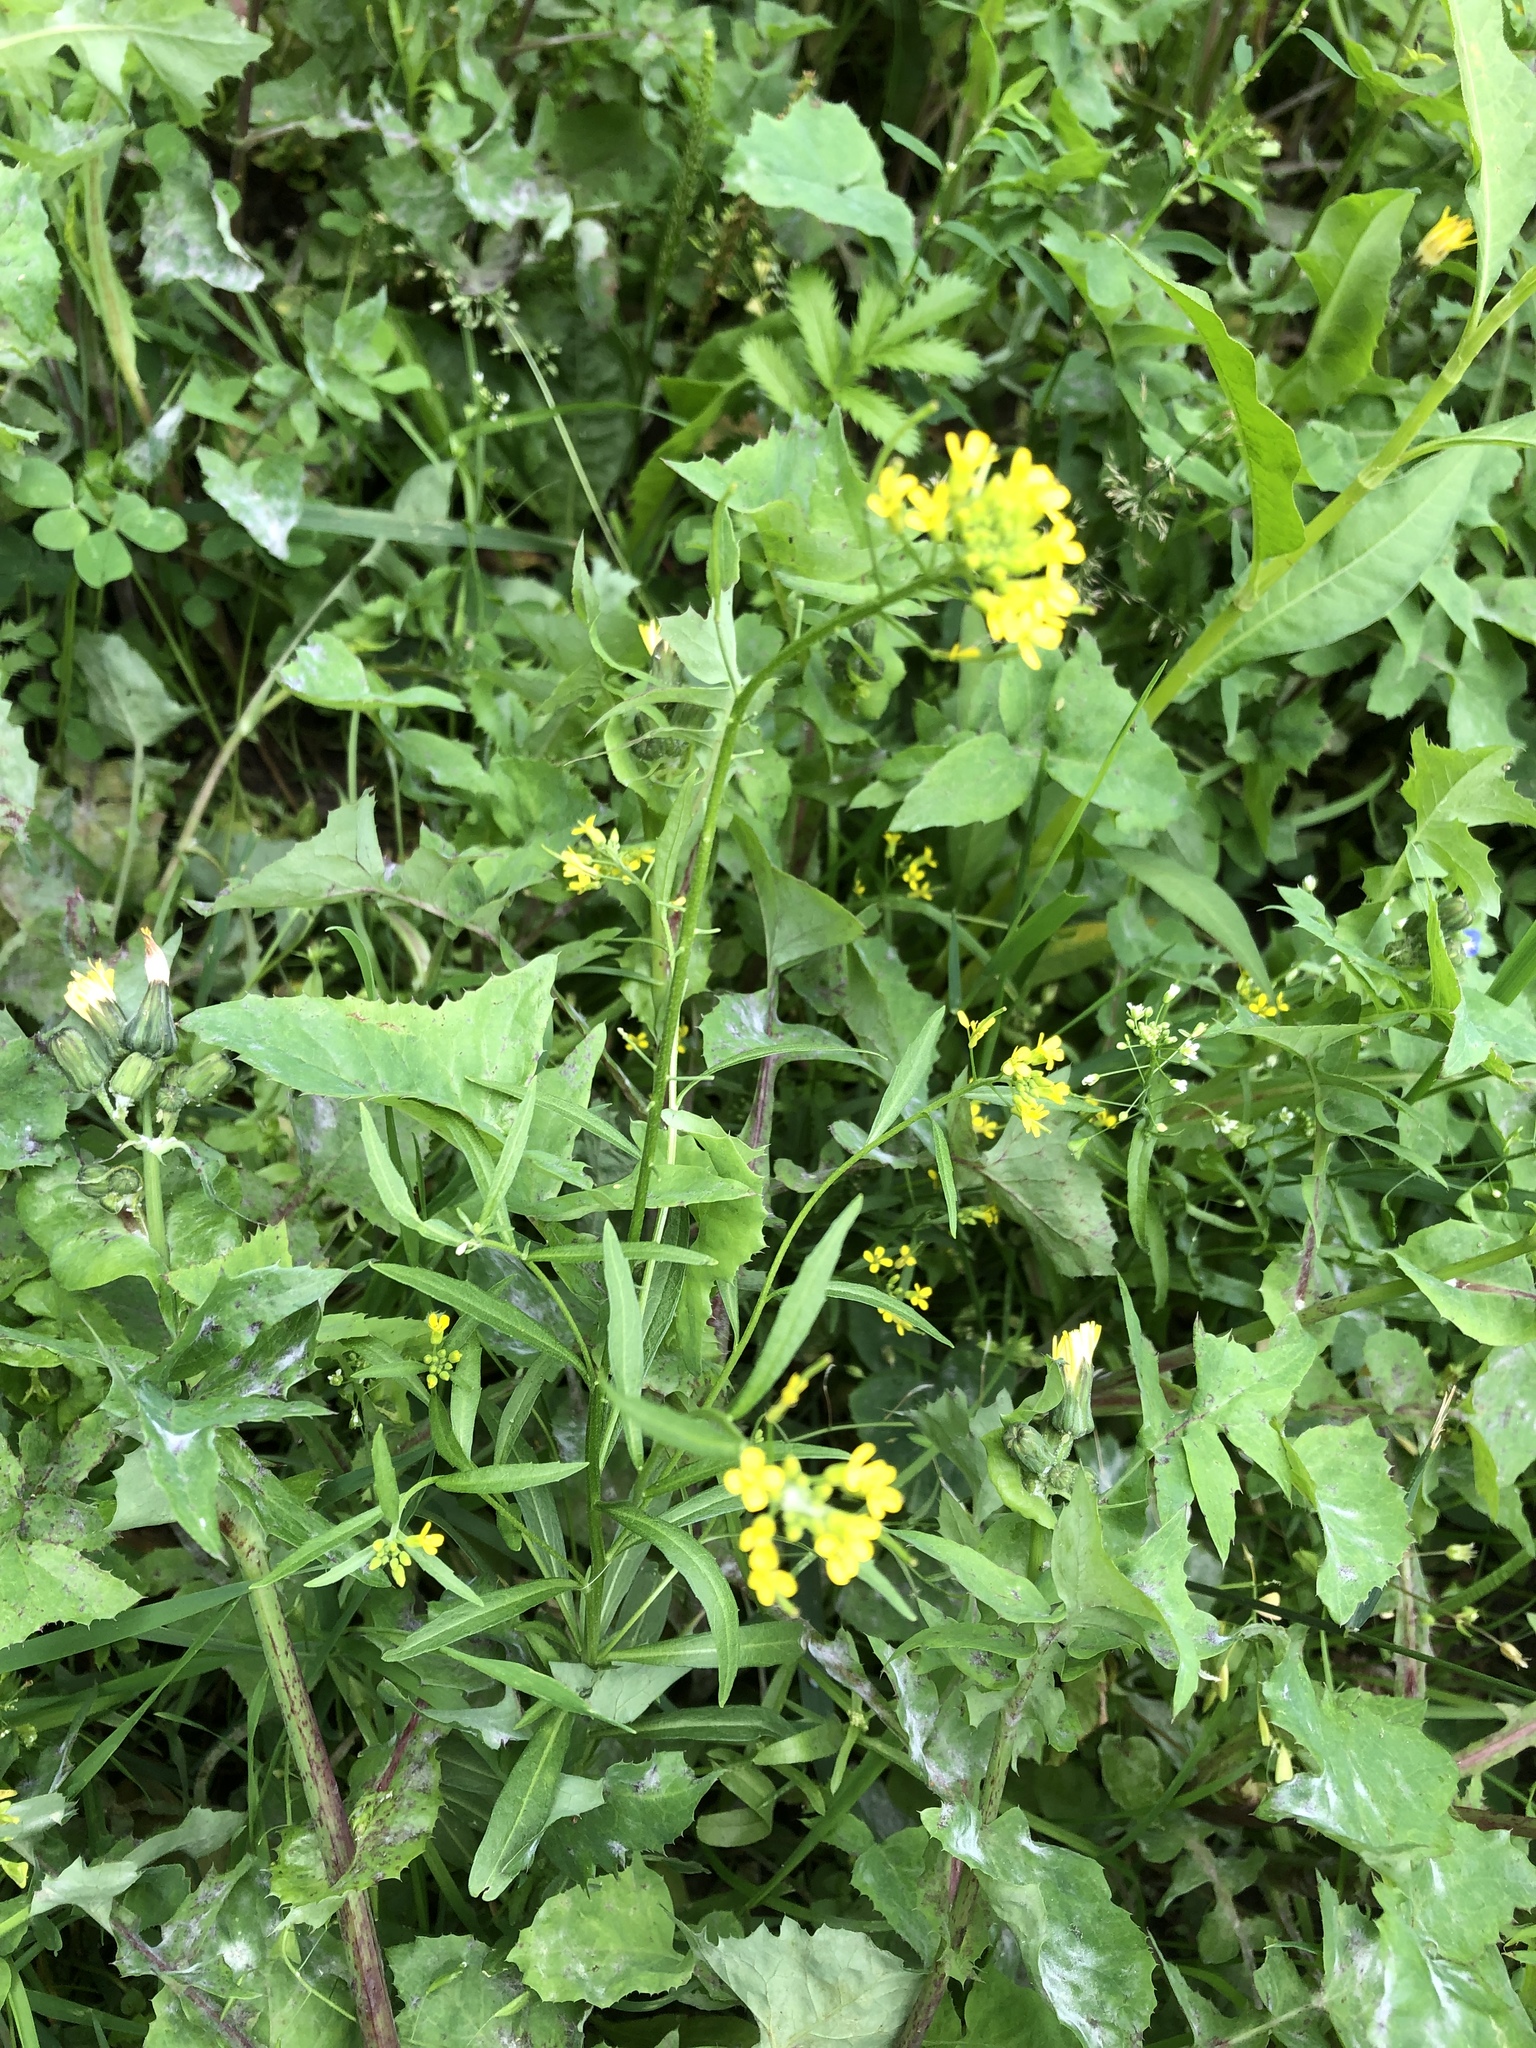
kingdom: Plantae
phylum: Tracheophyta
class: Magnoliopsida
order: Brassicales
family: Brassicaceae
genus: Erysimum
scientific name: Erysimum cheiranthoides
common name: Treacle mustard
